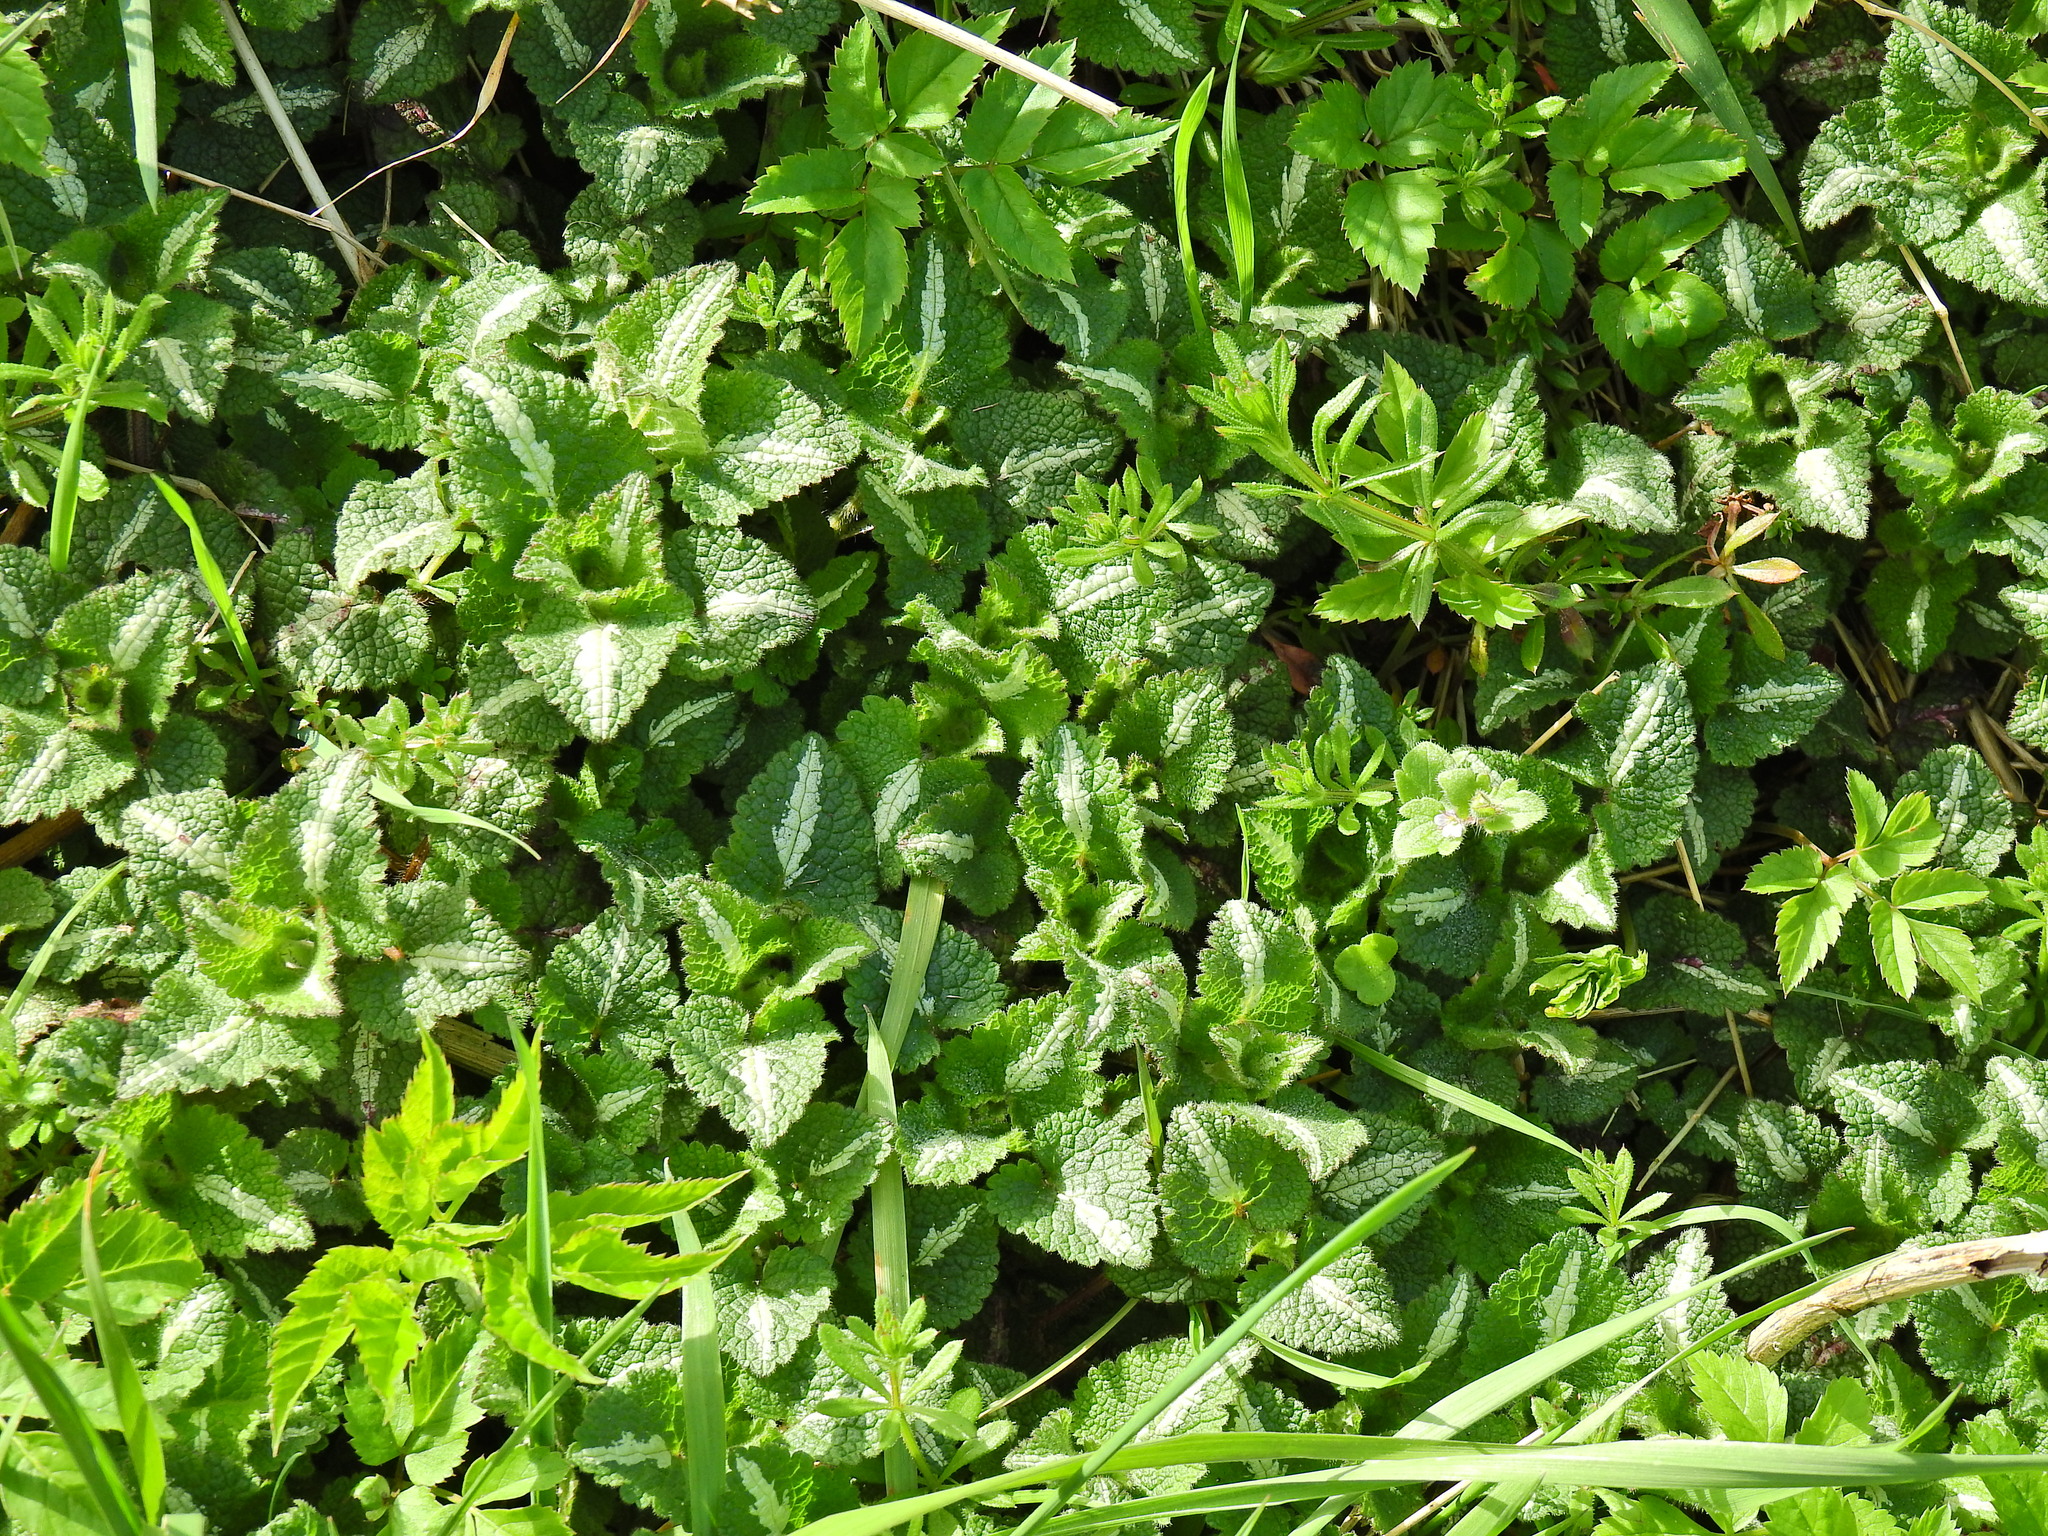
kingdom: Plantae
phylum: Tracheophyta
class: Magnoliopsida
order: Lamiales
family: Lamiaceae
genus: Lamium
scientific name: Lamium maculatum
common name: Spotted dead-nettle
